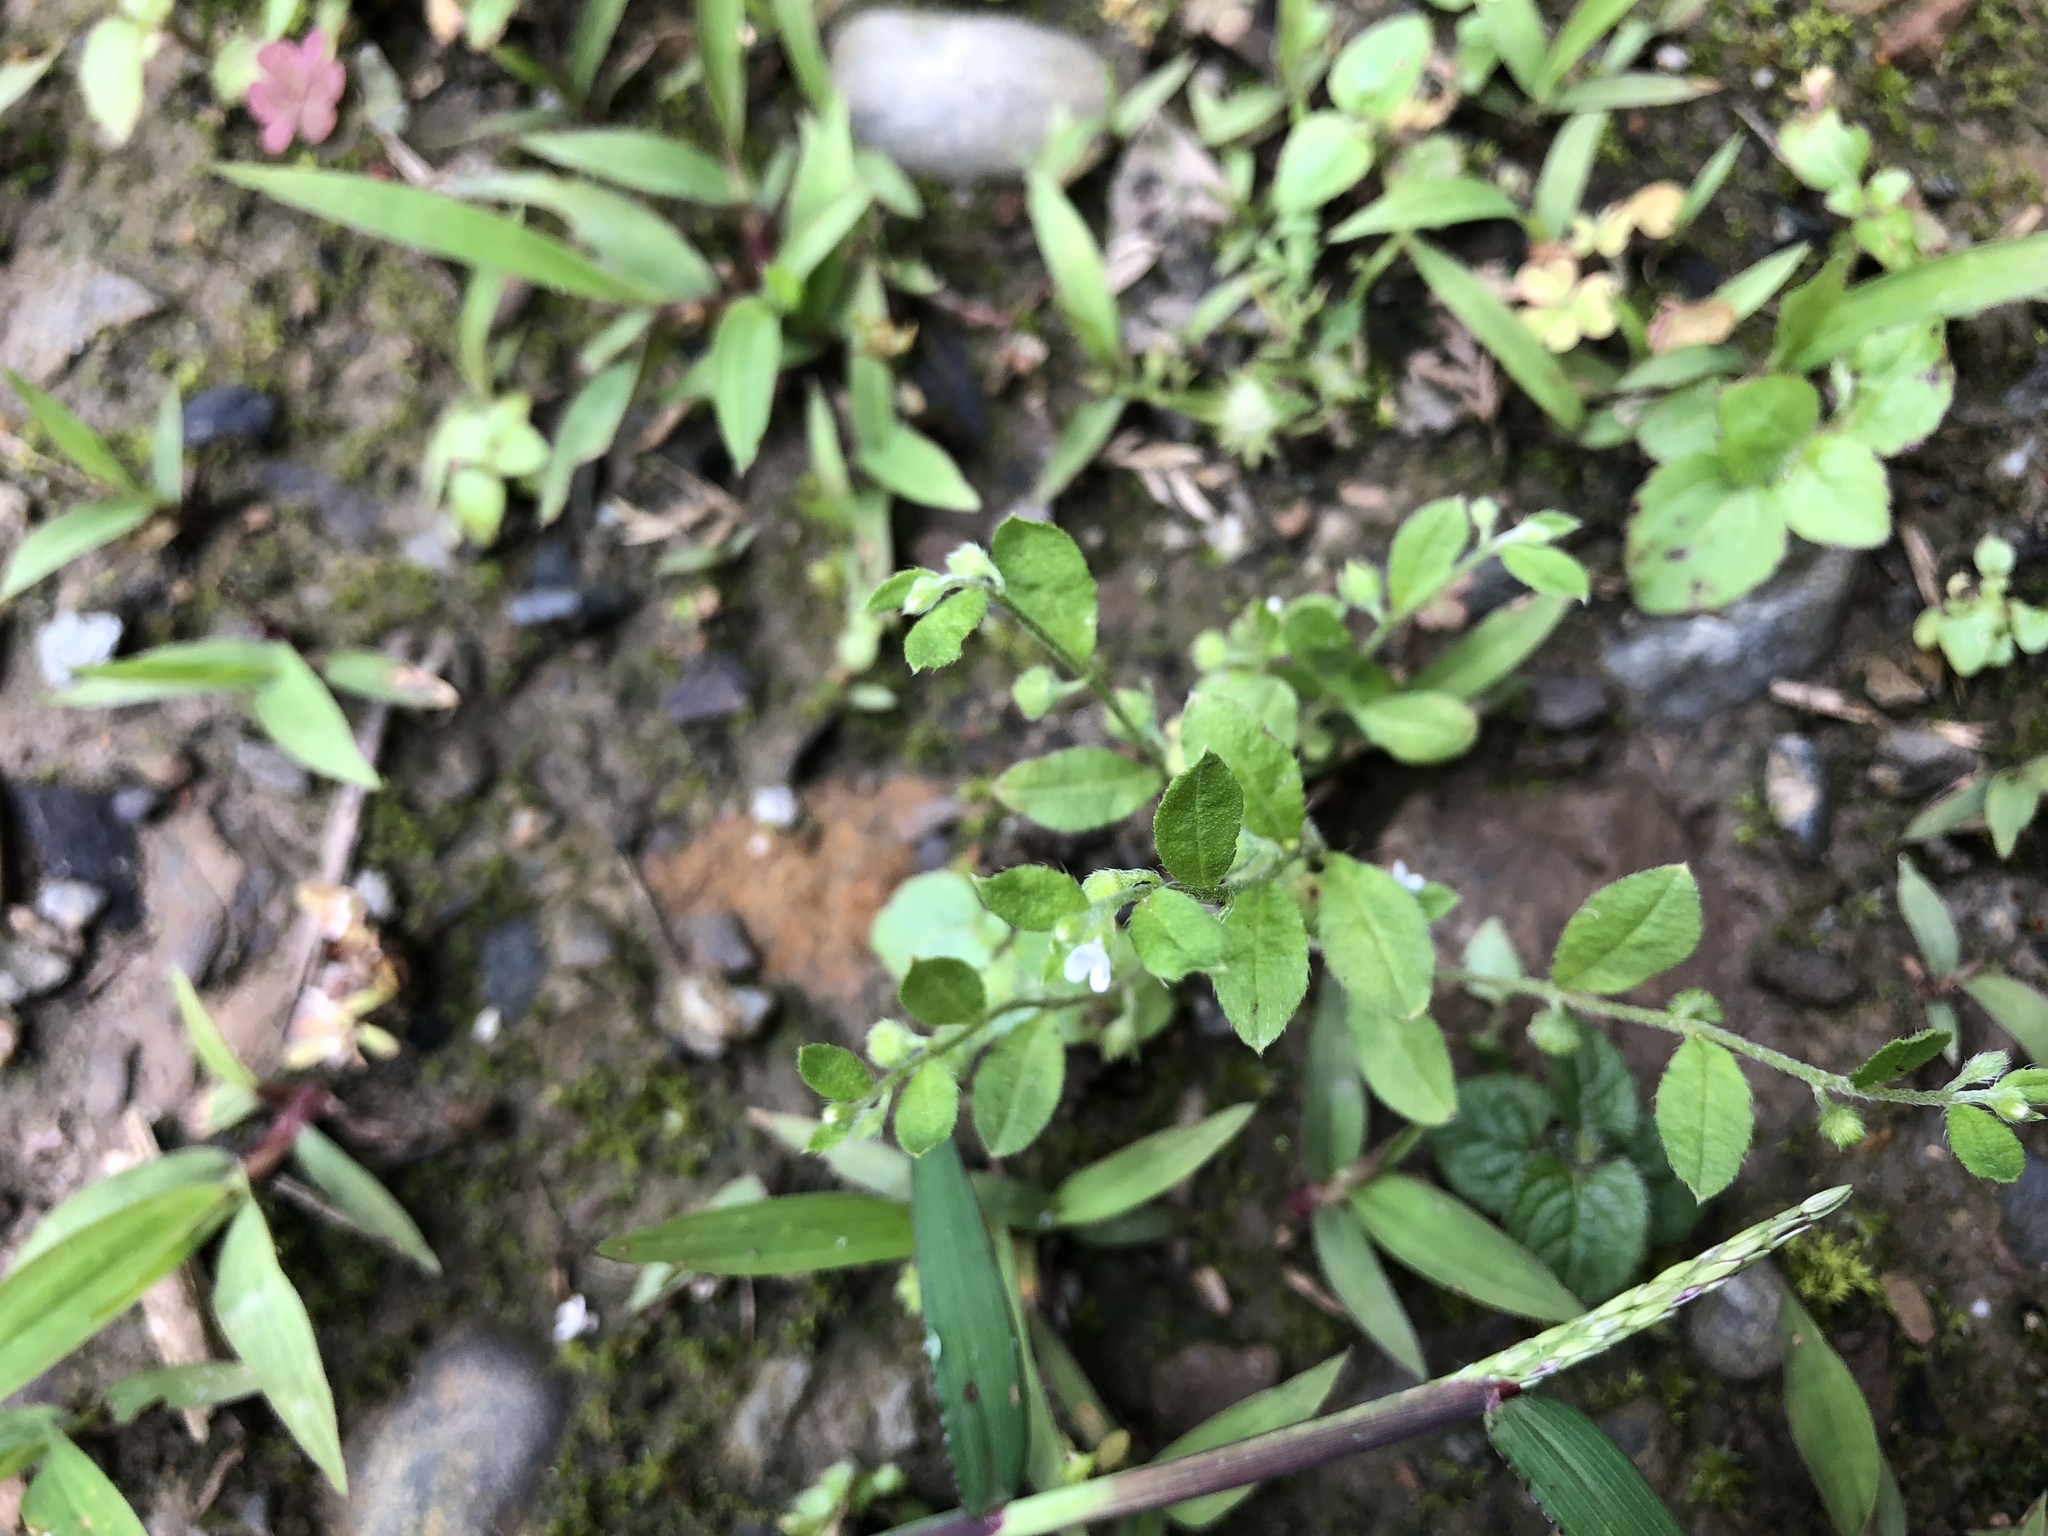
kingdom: Plantae
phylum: Tracheophyta
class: Magnoliopsida
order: Boraginales
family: Boraginaceae
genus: Bothriospermum
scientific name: Bothriospermum zeylanicum
